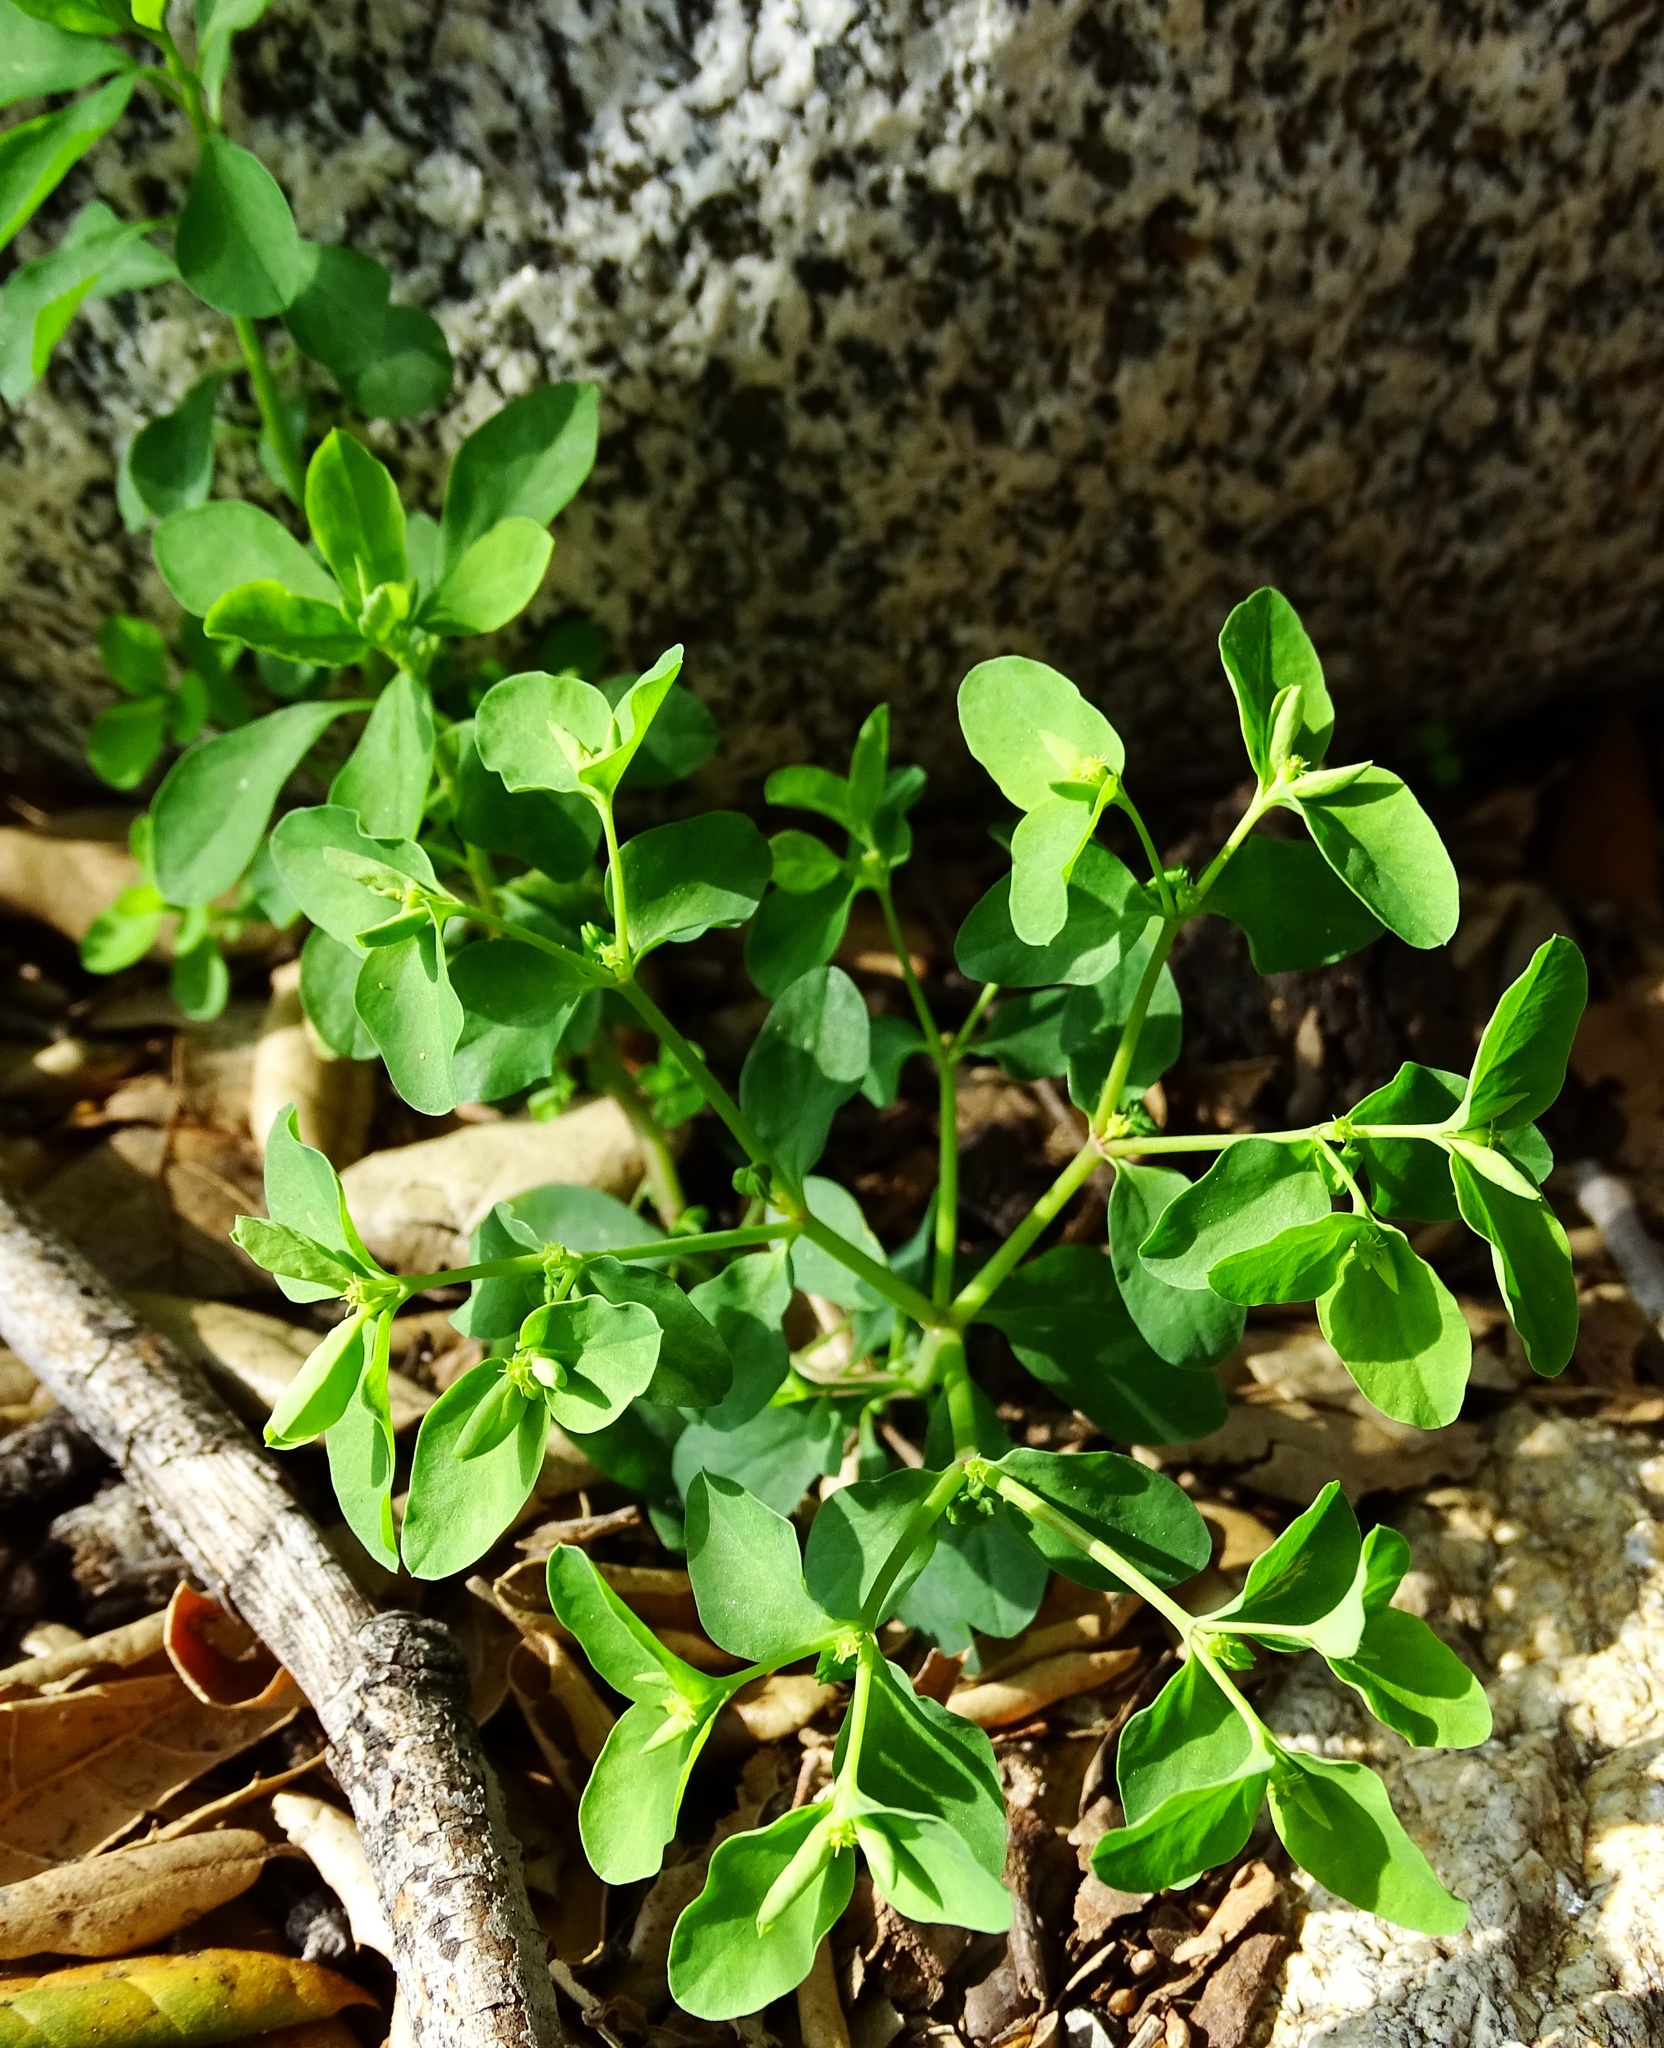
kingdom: Plantae
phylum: Tracheophyta
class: Magnoliopsida
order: Malpighiales
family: Euphorbiaceae
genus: Euphorbia
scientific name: Euphorbia peplus
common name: Petty spurge
